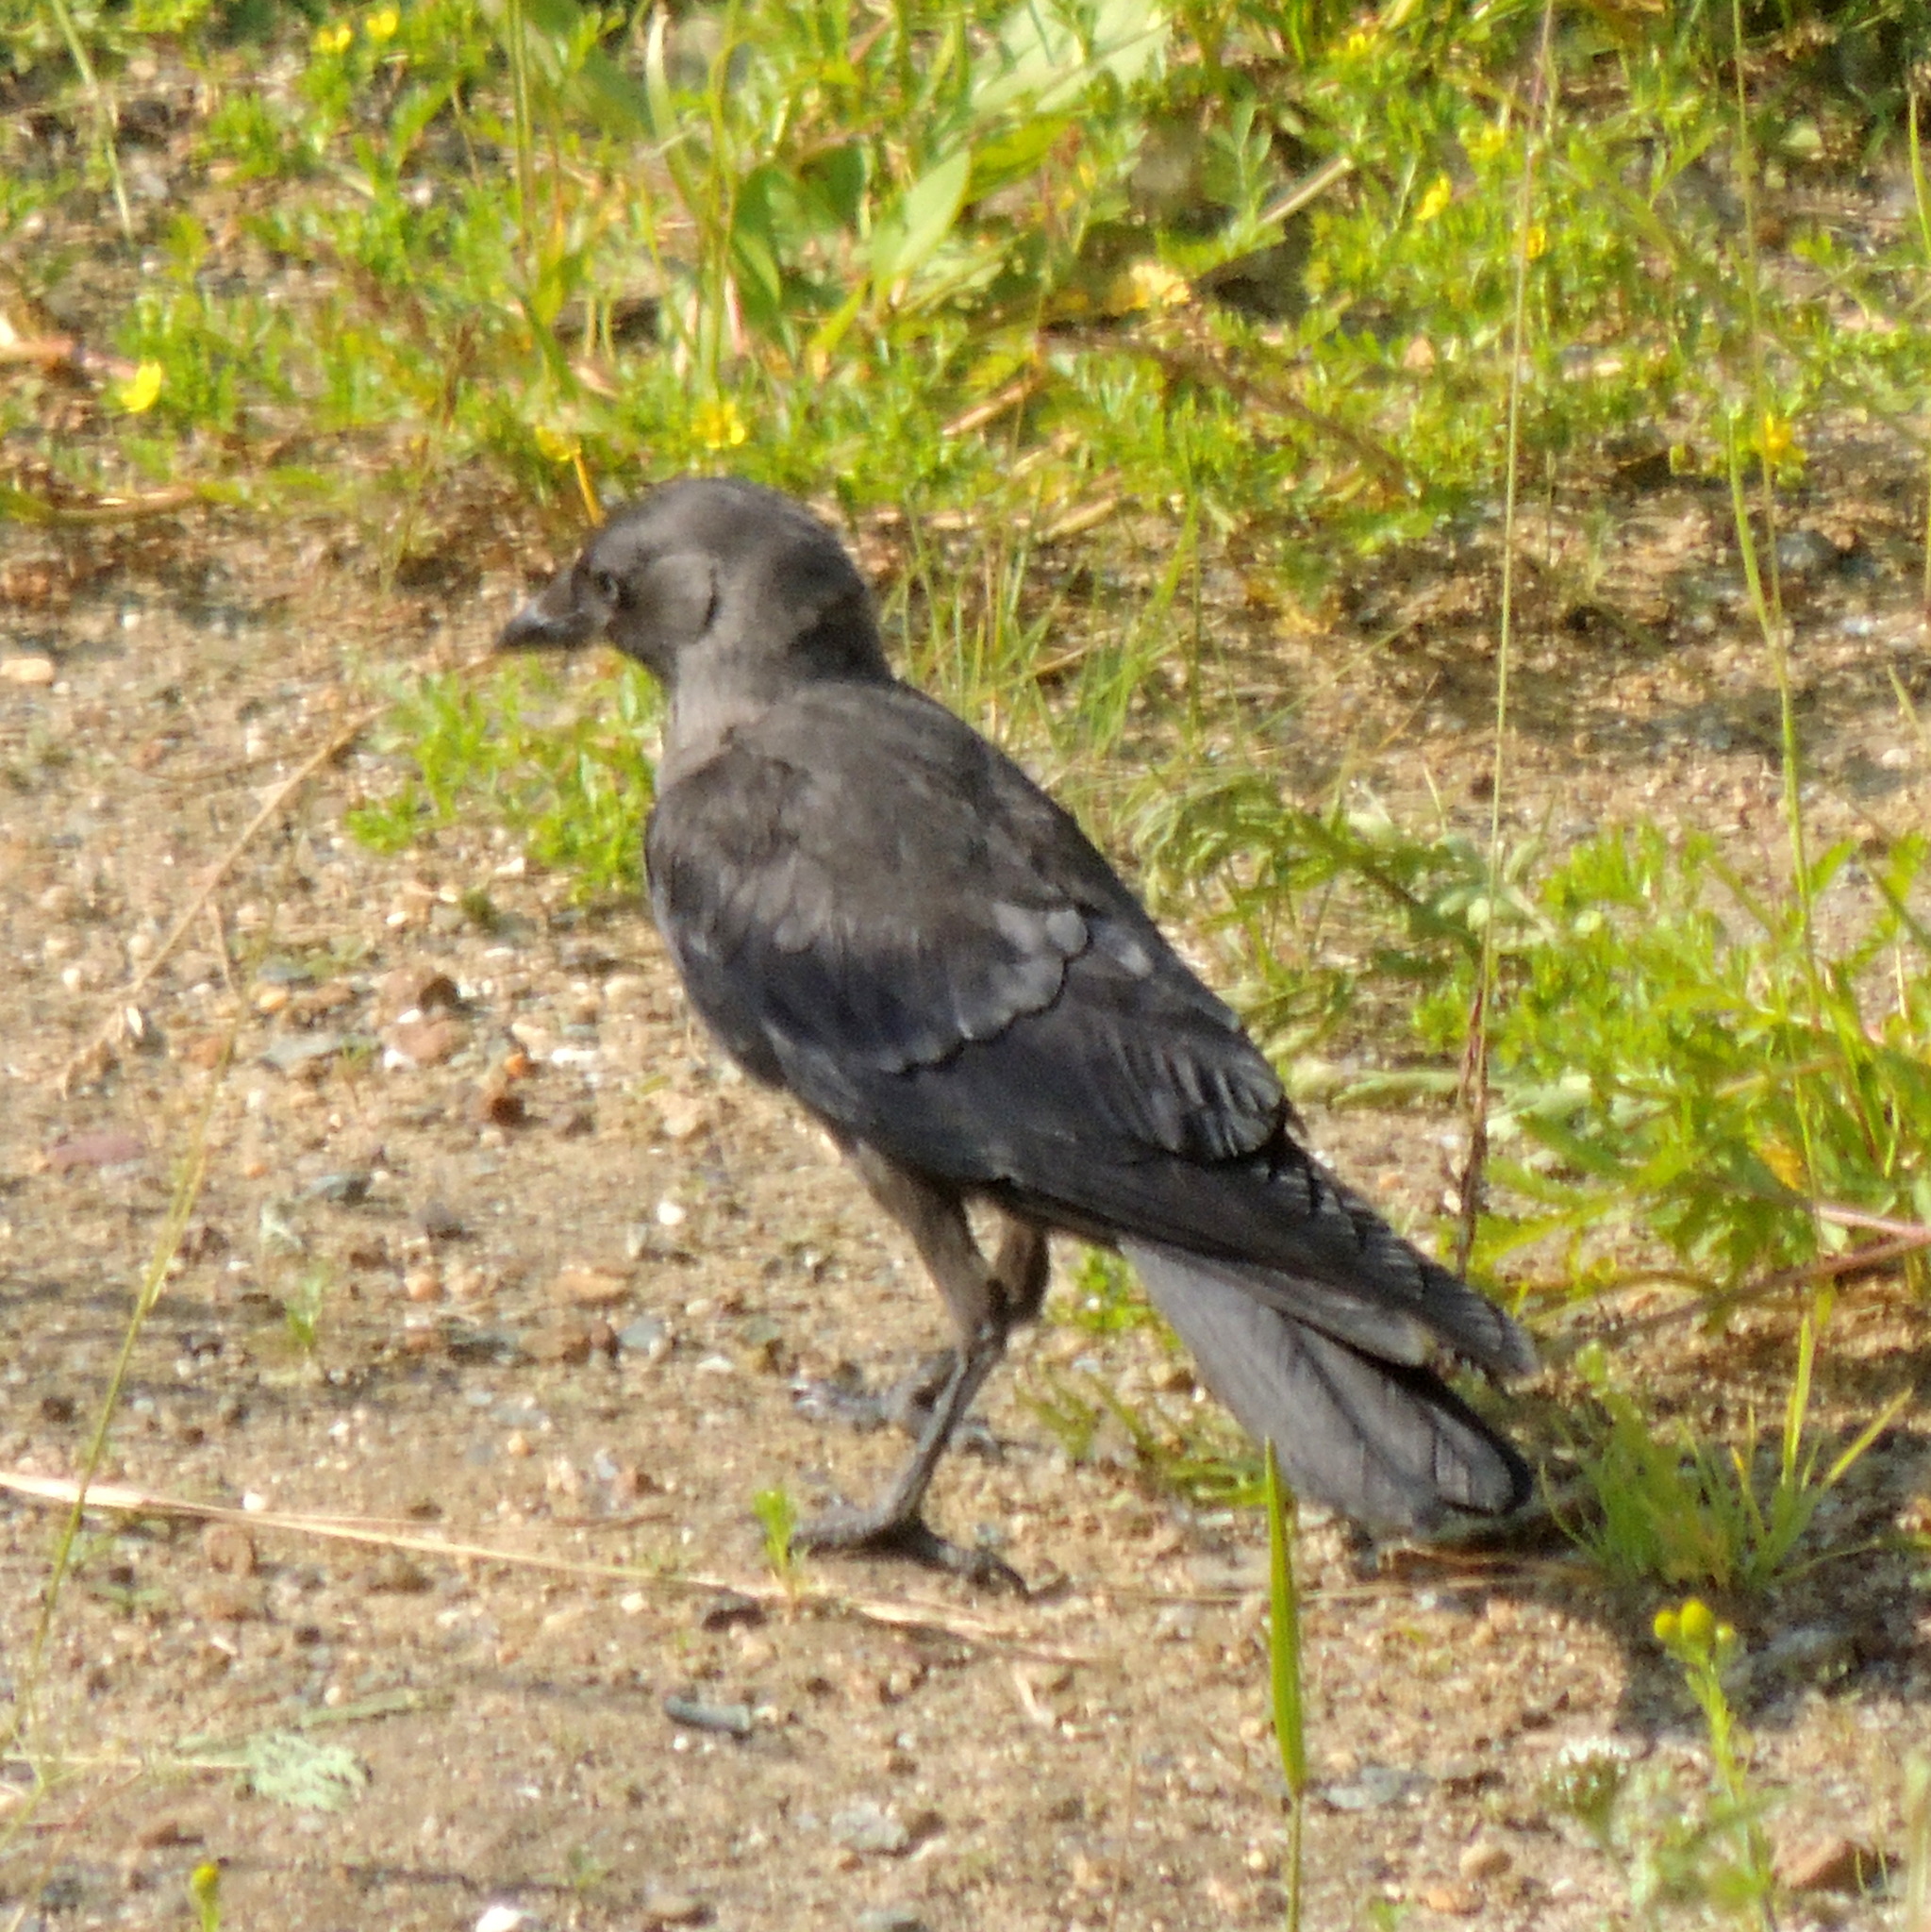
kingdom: Animalia
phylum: Chordata
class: Aves
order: Passeriformes
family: Corvidae
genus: Coloeus
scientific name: Coloeus monedula
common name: Western jackdaw
